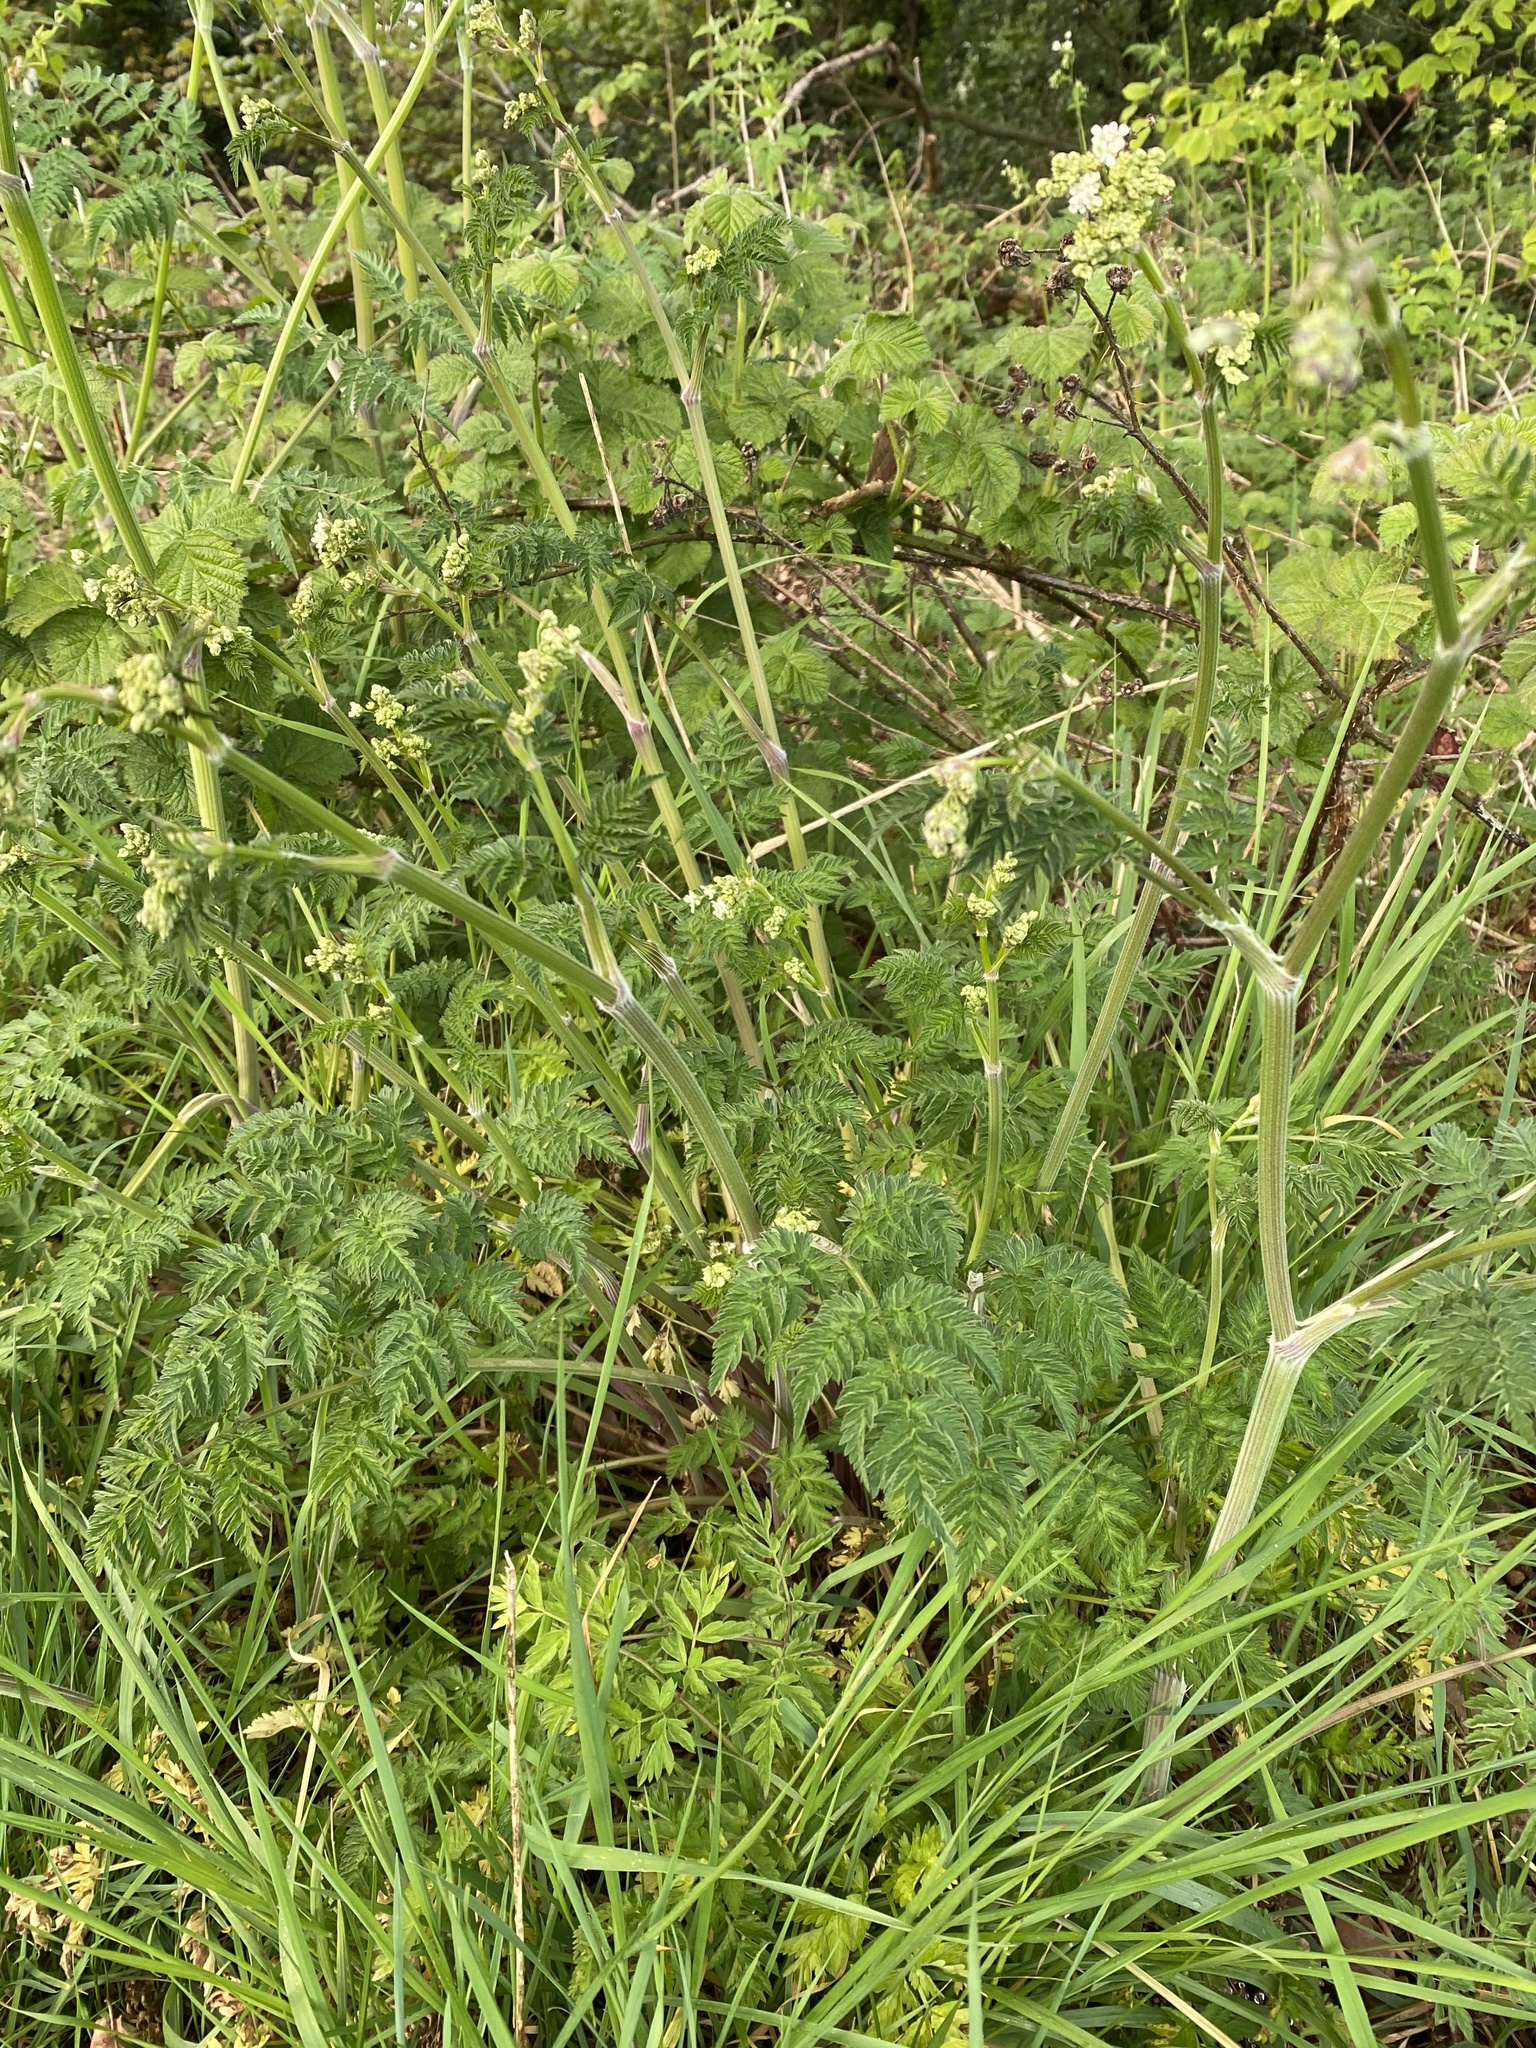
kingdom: Plantae
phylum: Tracheophyta
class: Magnoliopsida
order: Apiales
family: Apiaceae
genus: Anthriscus
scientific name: Anthriscus sylvestris
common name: Cow parsley
